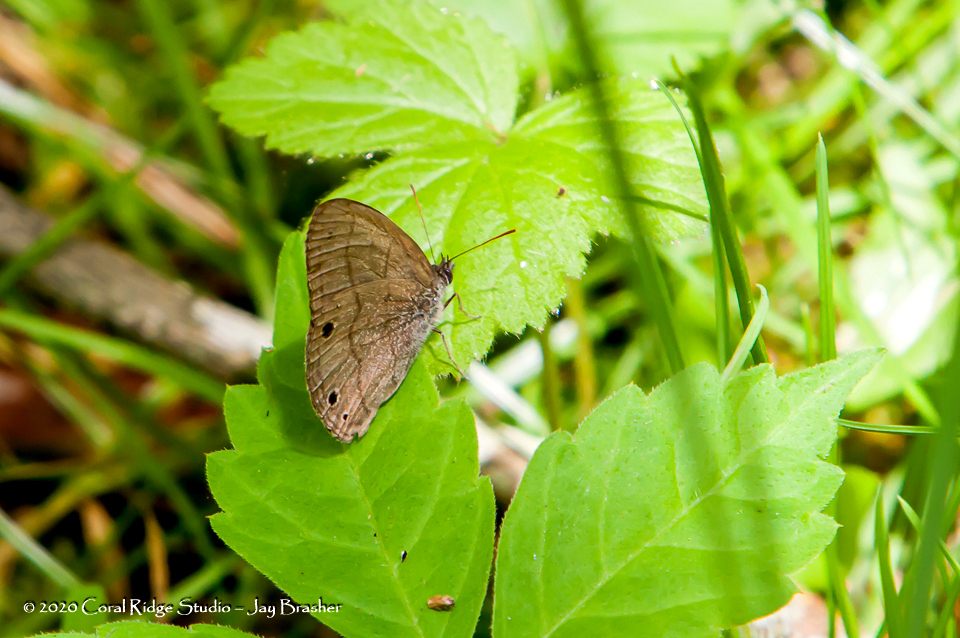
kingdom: Animalia
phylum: Arthropoda
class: Insecta
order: Lepidoptera
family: Nymphalidae
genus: Hermeuptychia
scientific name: Hermeuptychia hermes
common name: Hermes satyr
